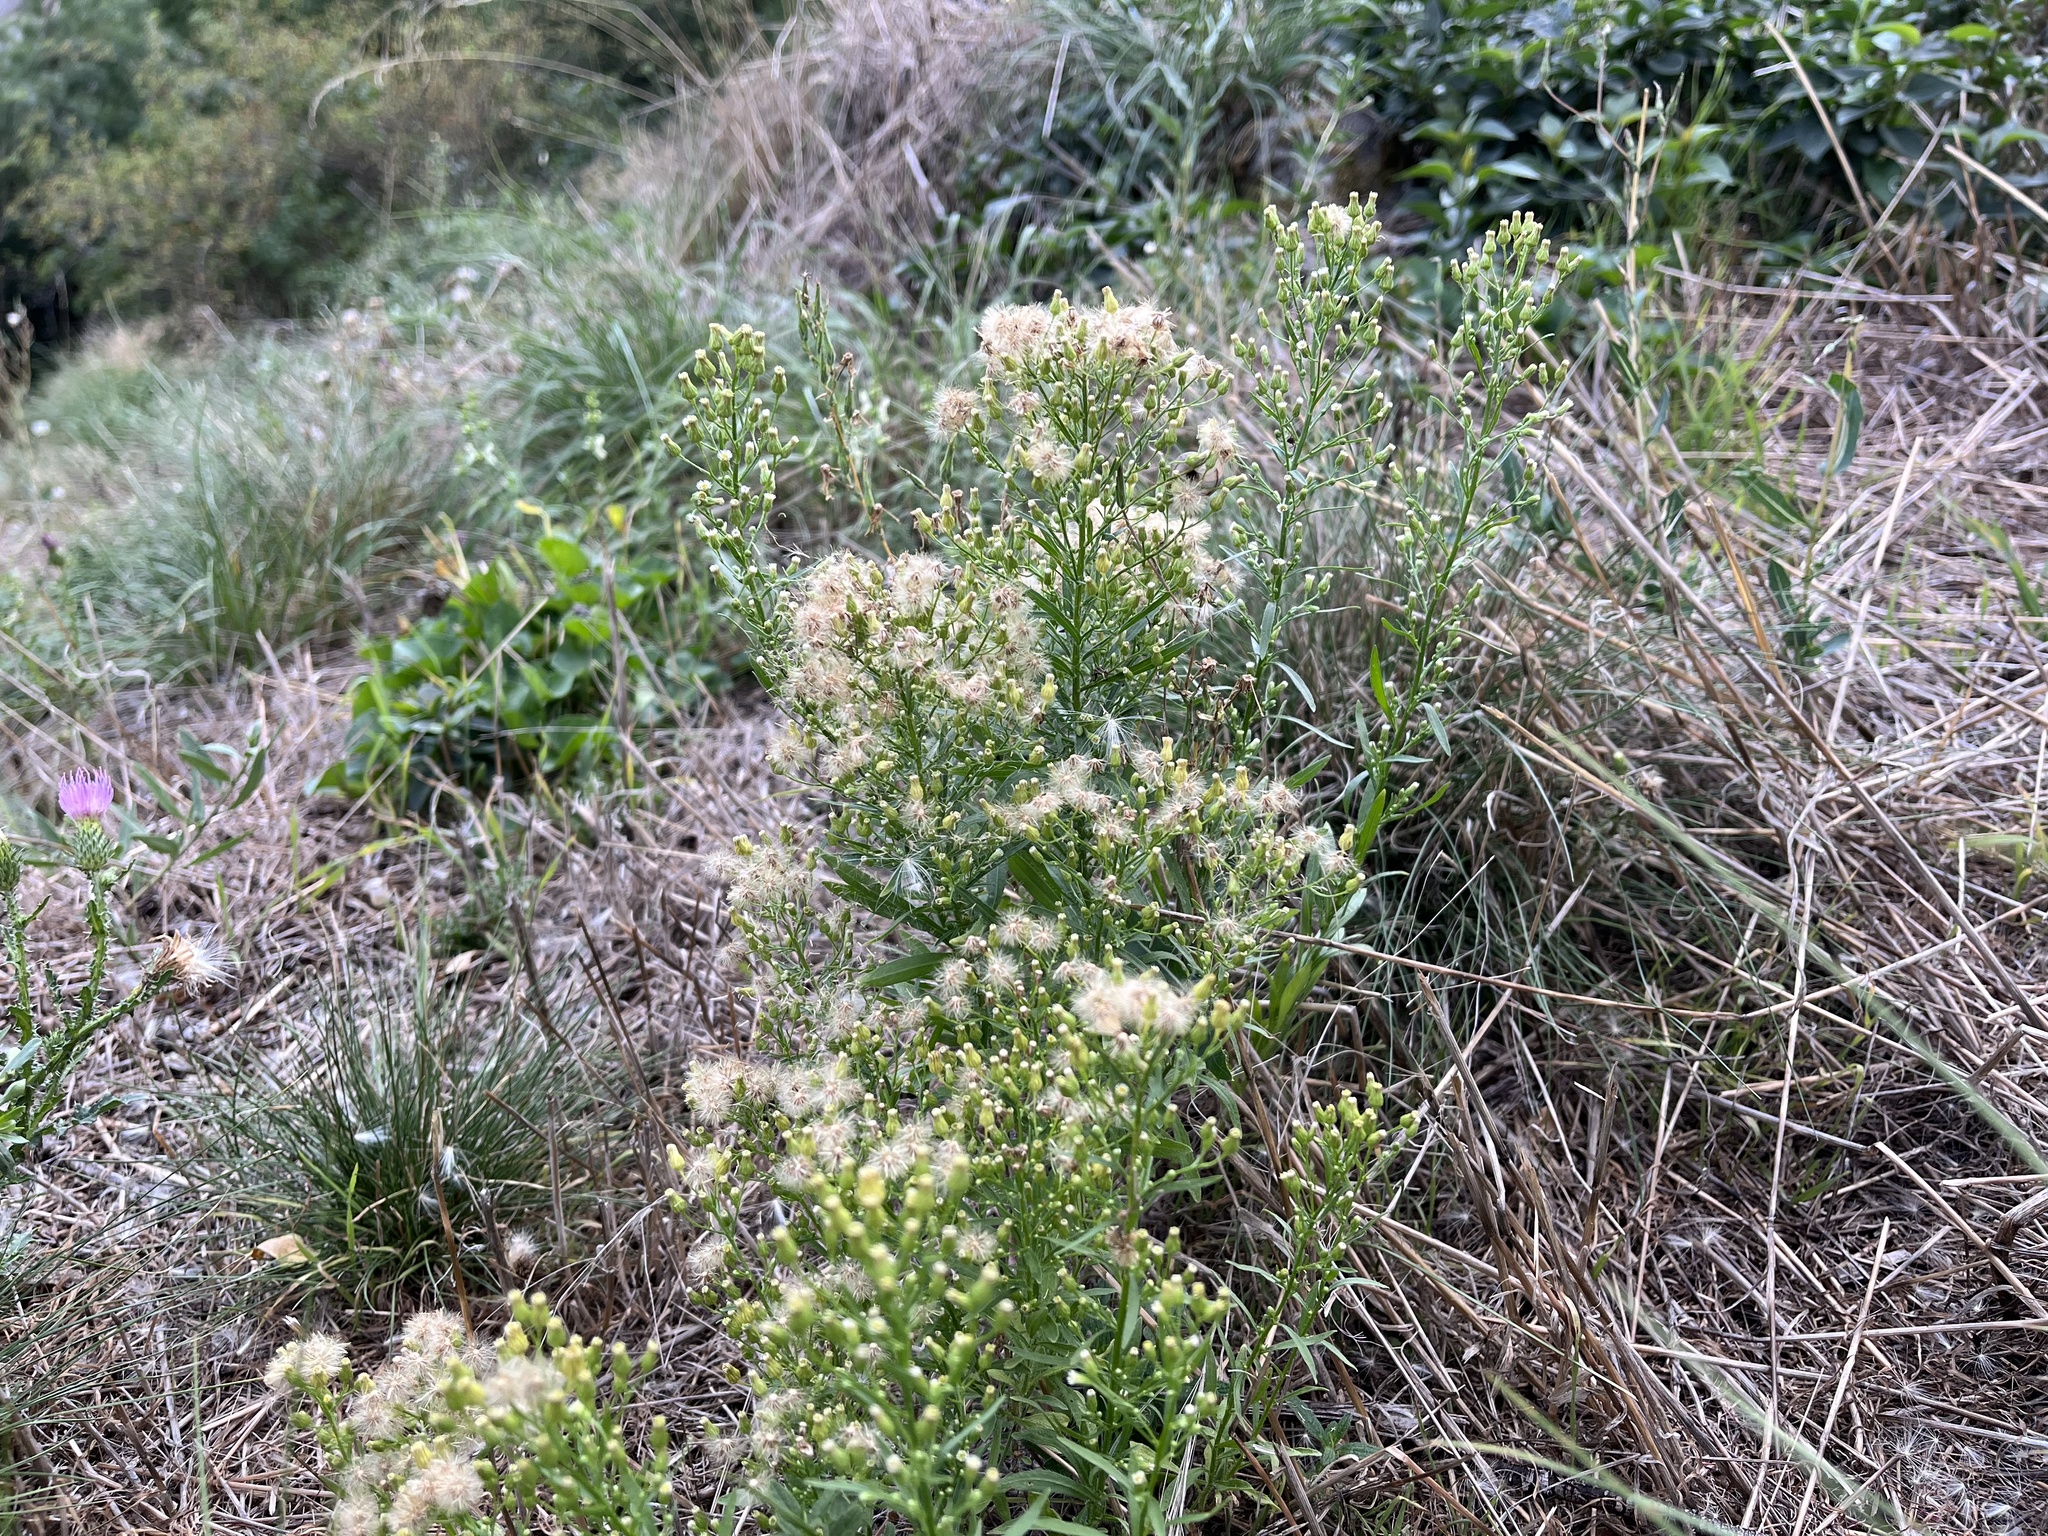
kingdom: Plantae
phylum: Tracheophyta
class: Magnoliopsida
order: Asterales
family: Asteraceae
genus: Erigeron
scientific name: Erigeron canadensis
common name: Canadian fleabane
